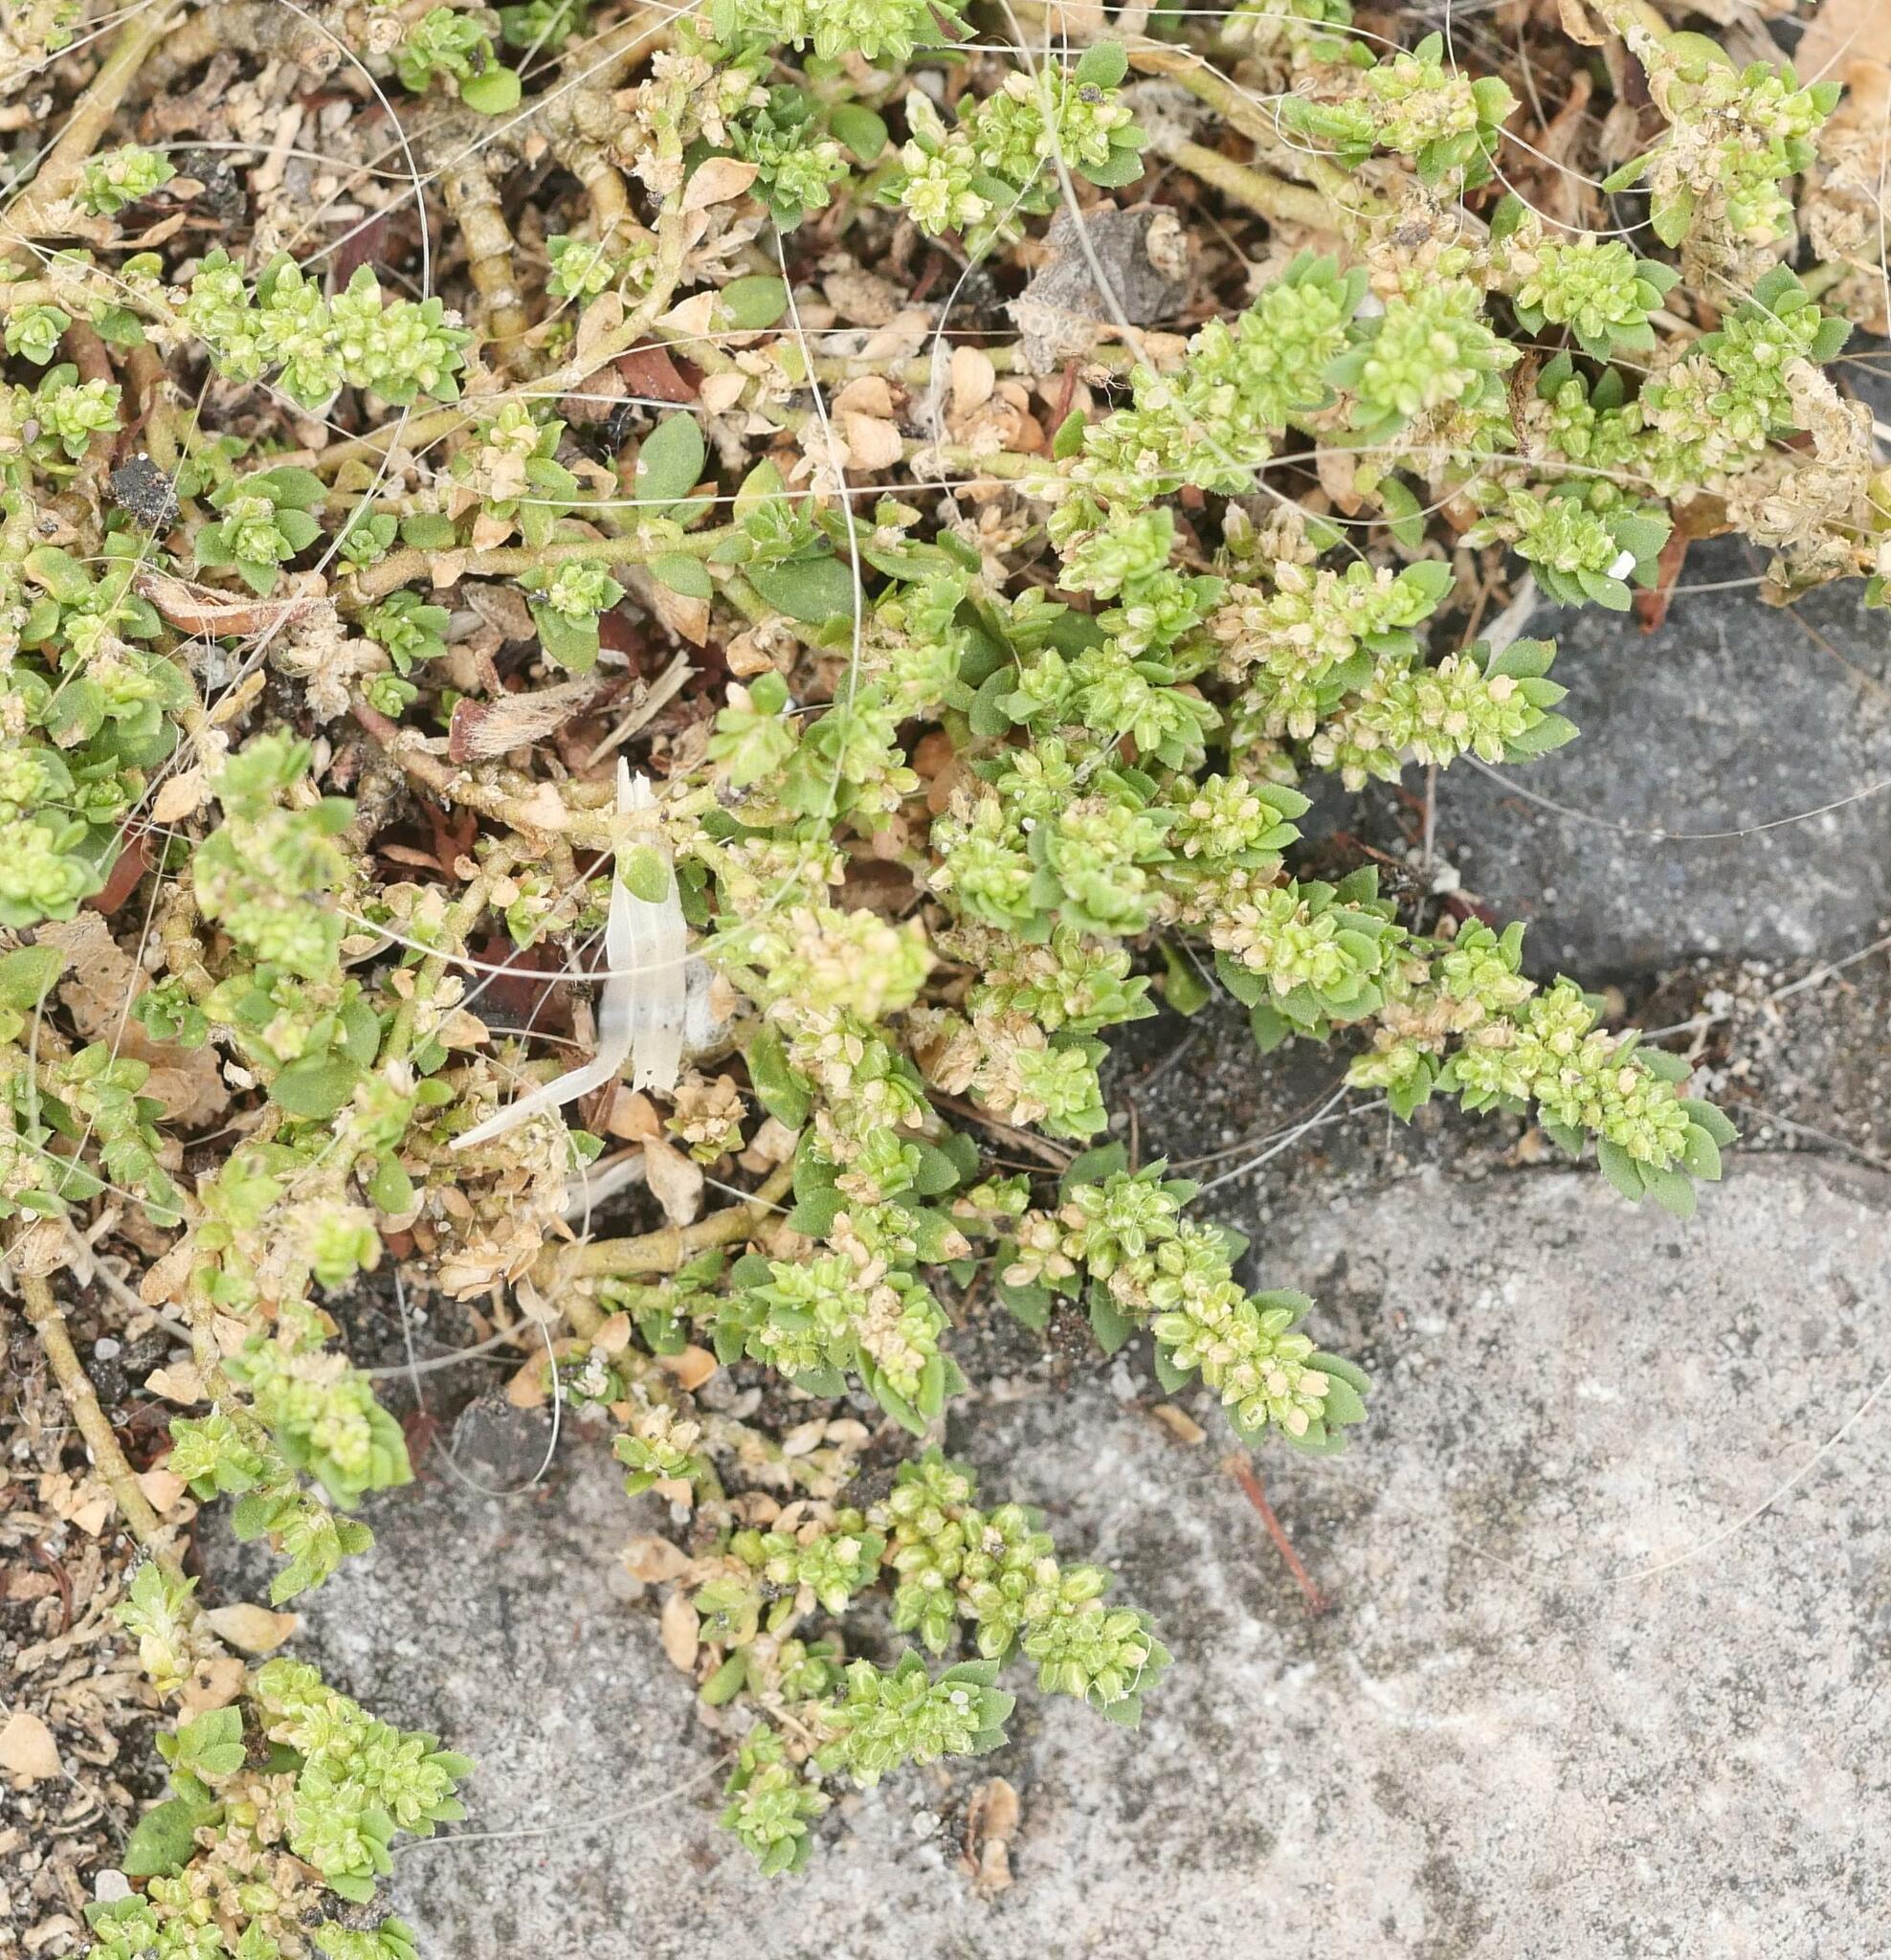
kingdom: Plantae
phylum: Tracheophyta
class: Magnoliopsida
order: Caryophyllales
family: Caryophyllaceae
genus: Herniaria
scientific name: Herniaria glabra
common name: Smooth rupturewort
